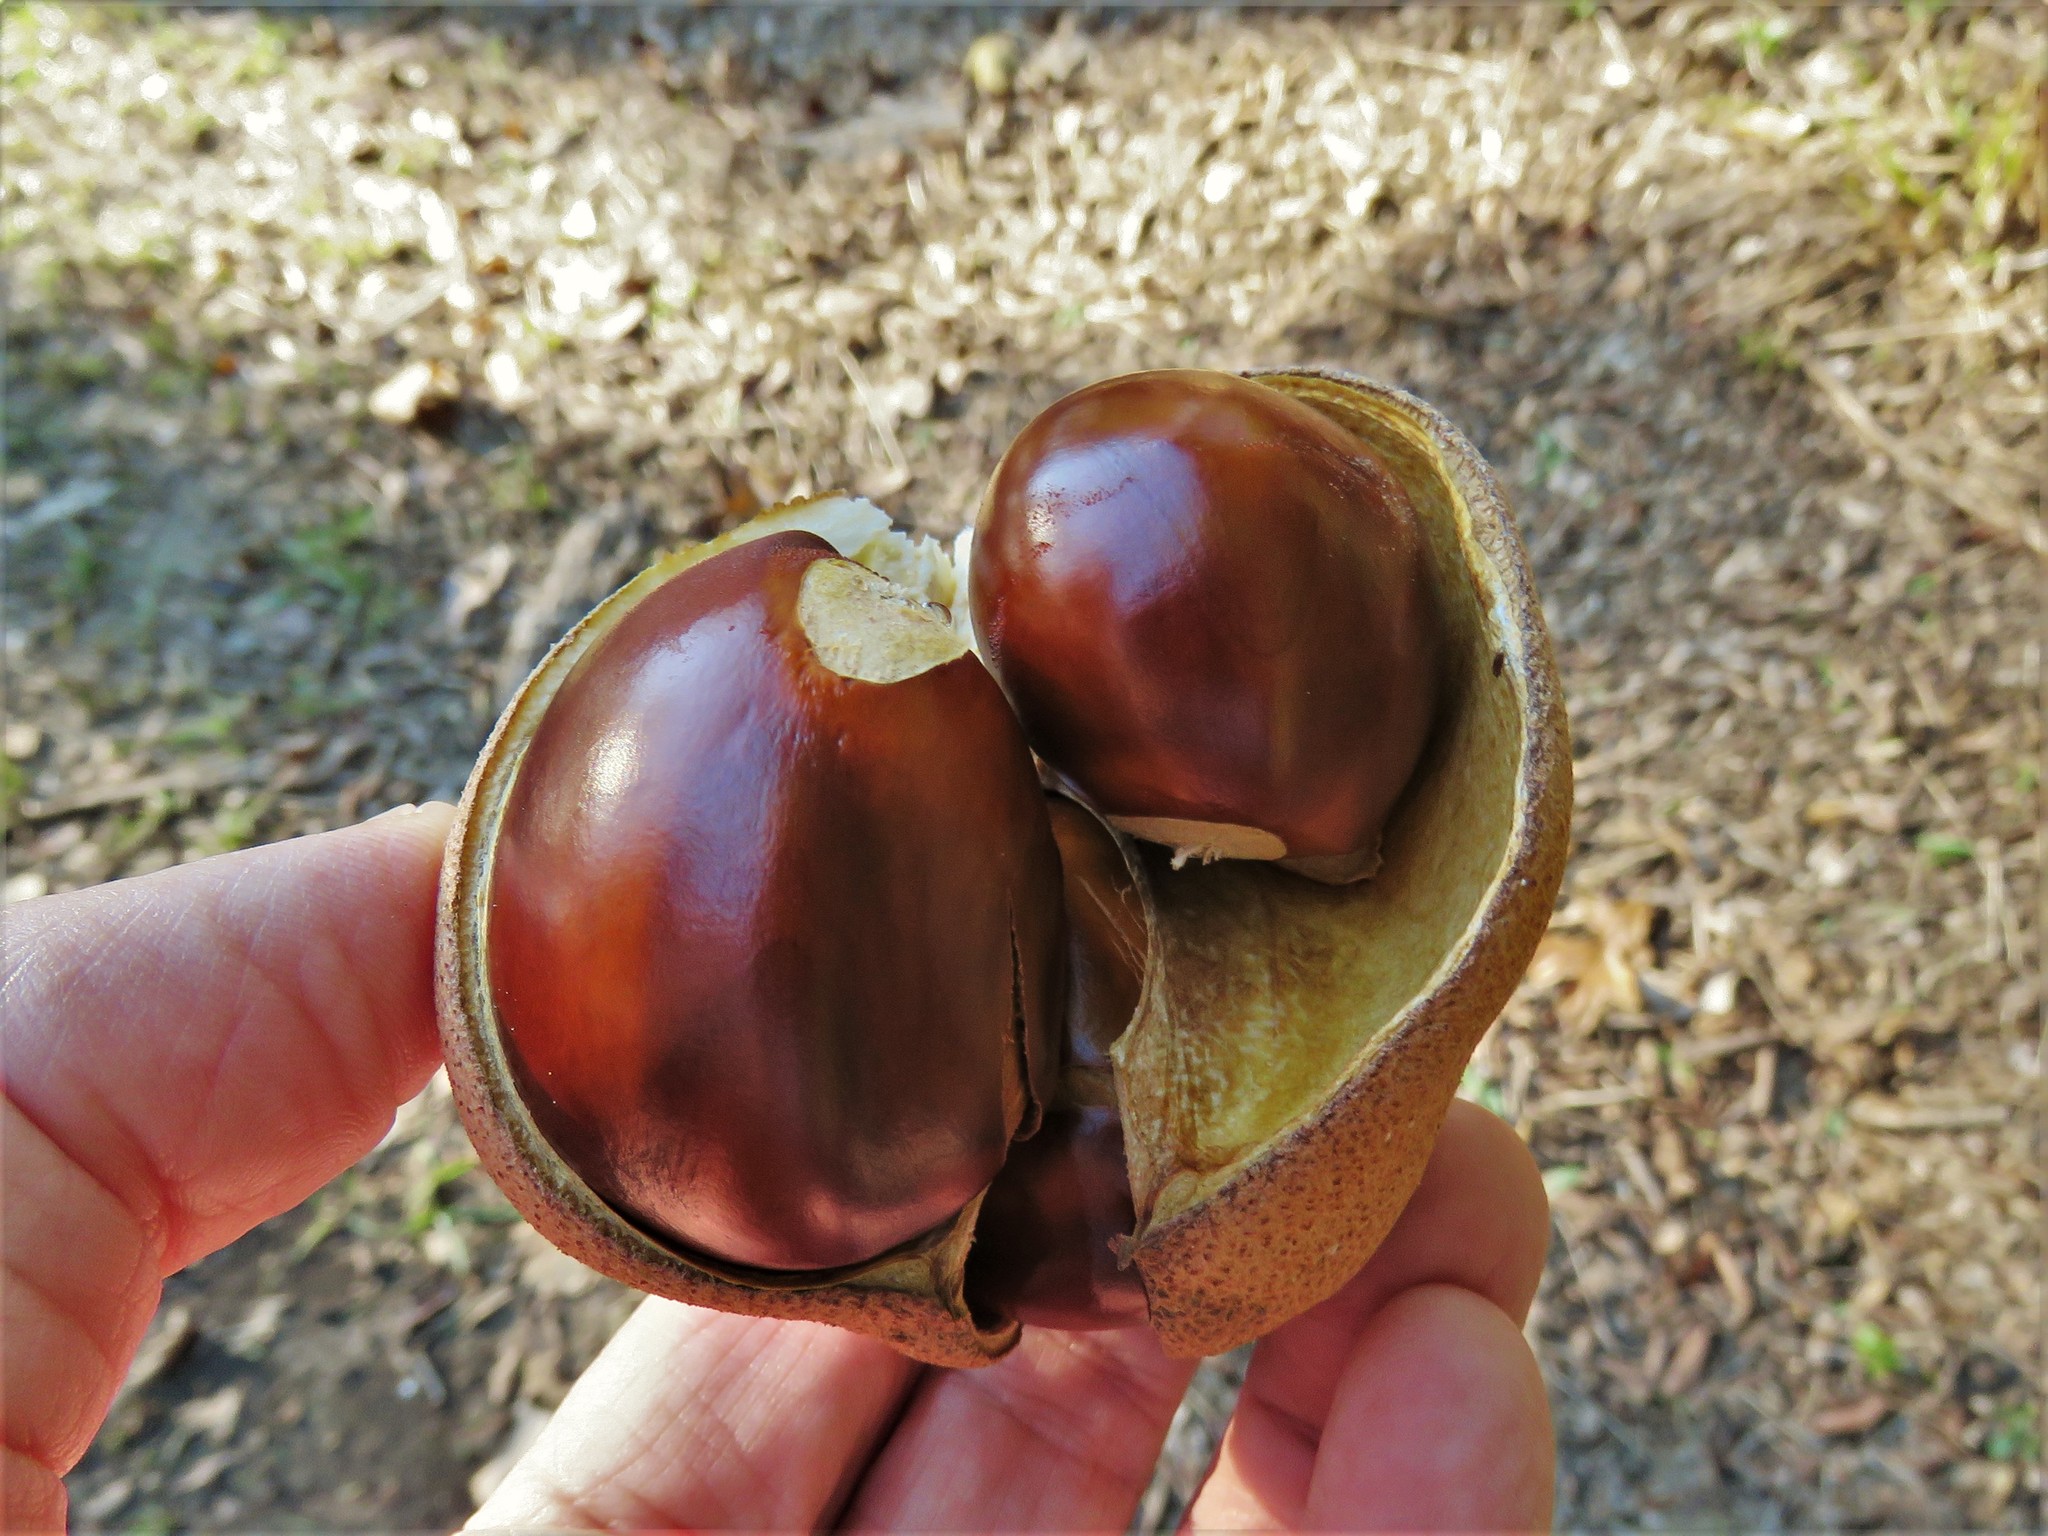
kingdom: Plantae
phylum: Tracheophyta
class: Magnoliopsida
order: Sapindales
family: Sapindaceae
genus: Aesculus
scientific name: Aesculus pavia
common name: Red buckeye
